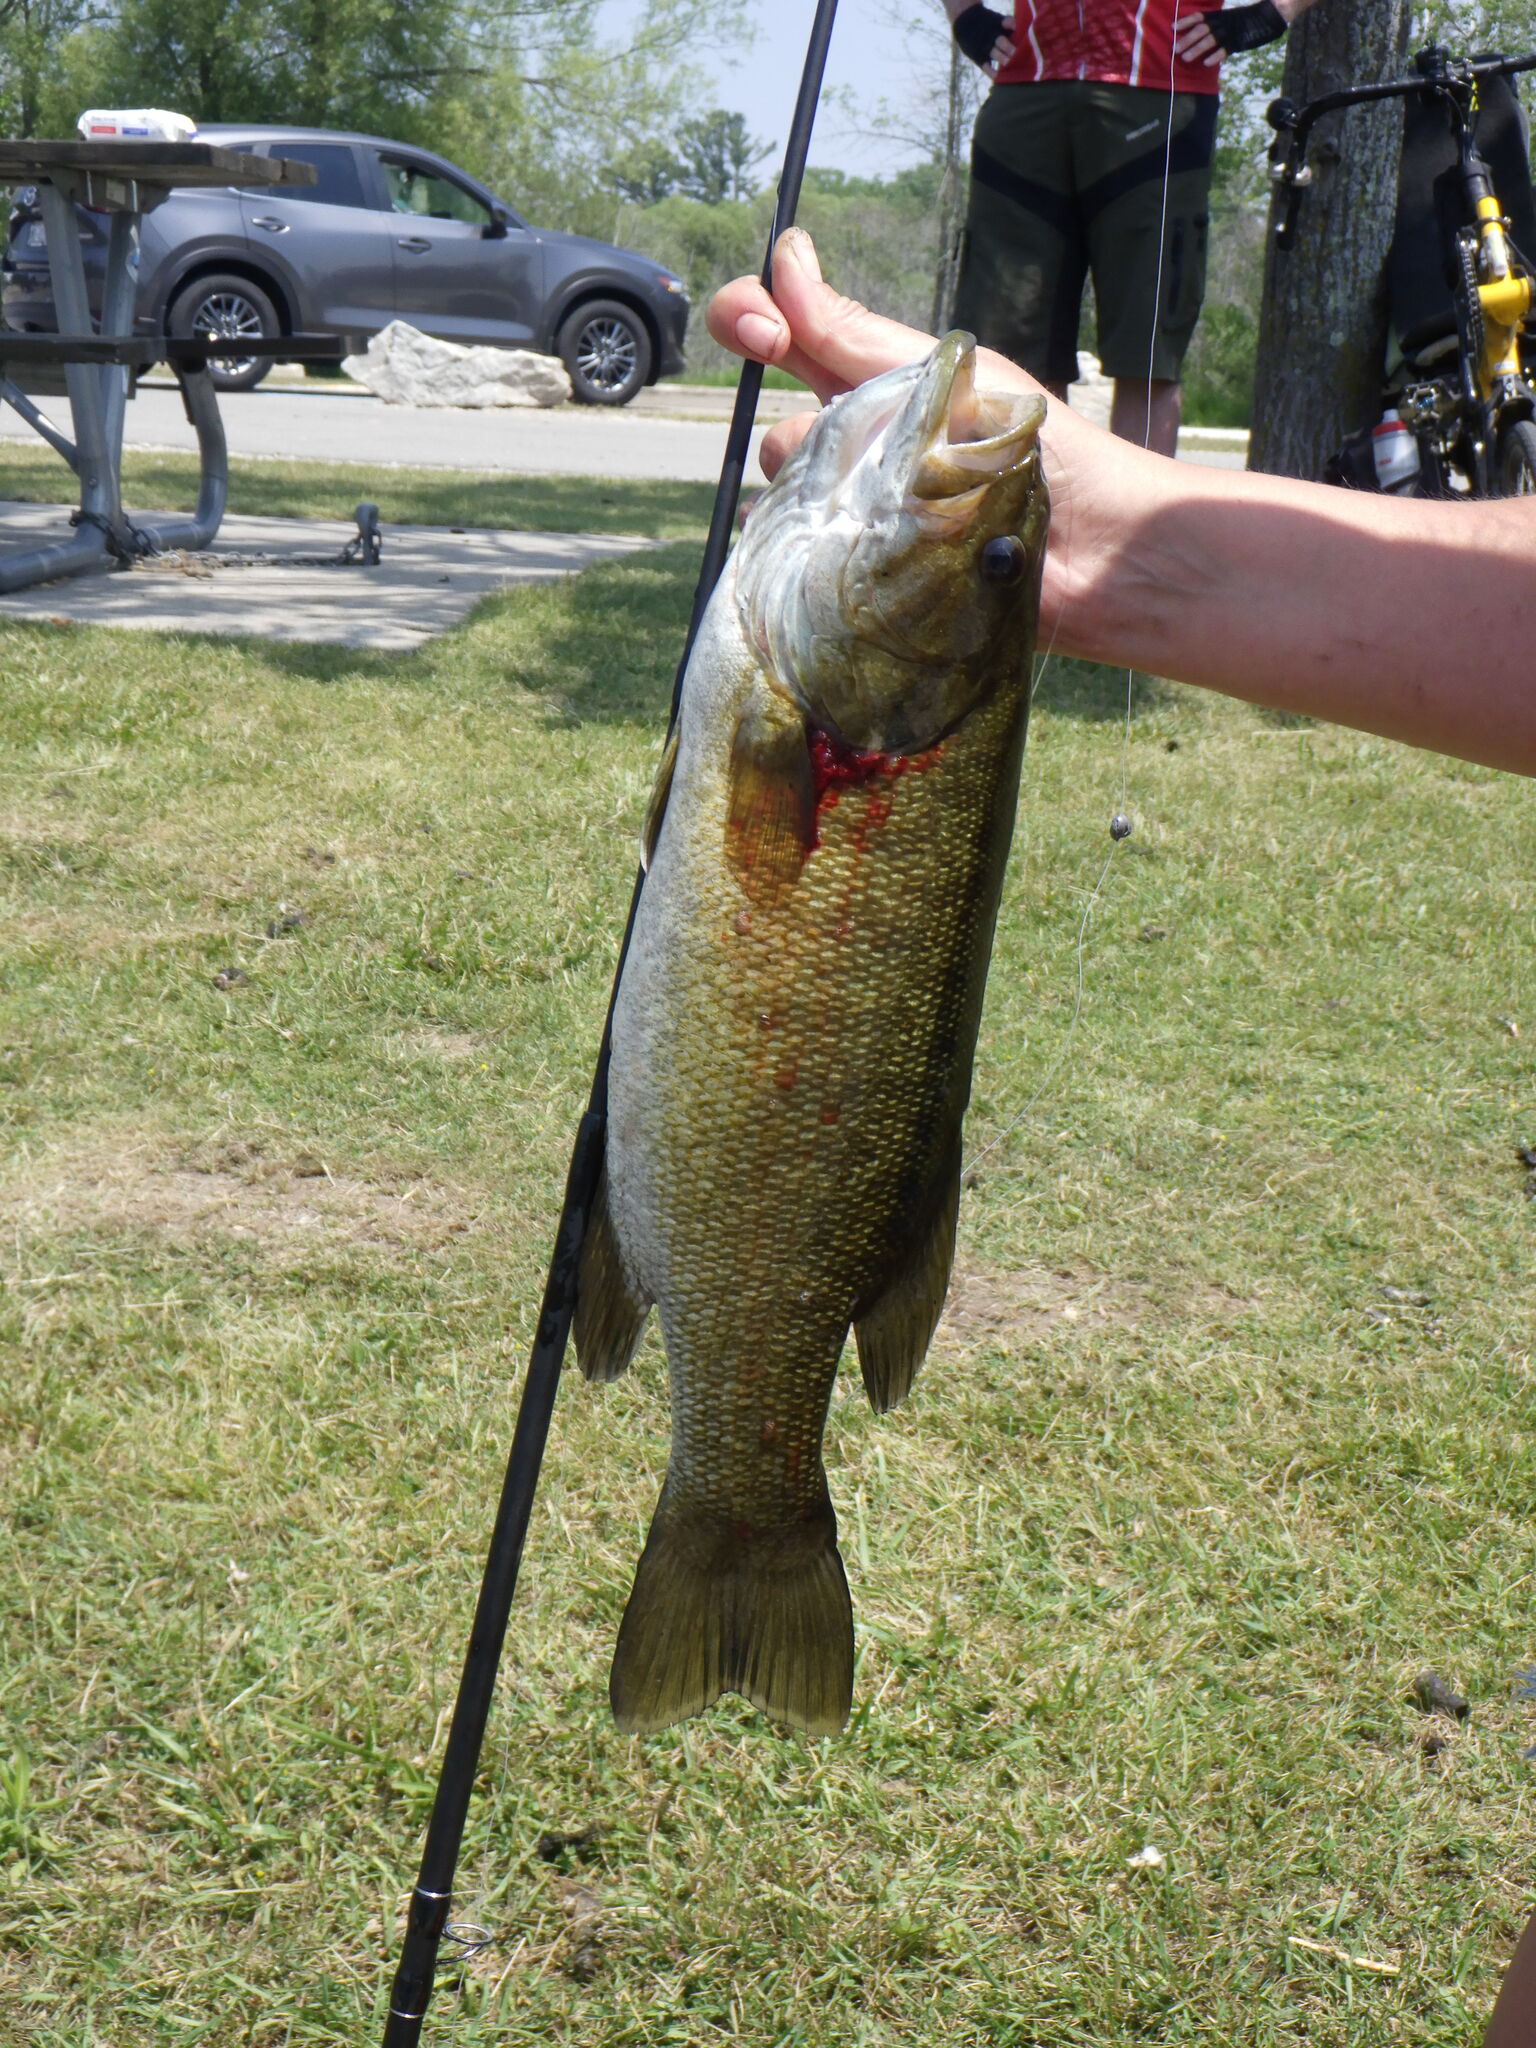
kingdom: Animalia
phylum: Chordata
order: Perciformes
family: Centrarchidae
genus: Micropterus
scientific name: Micropterus dolomieu
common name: Smallmouth bass
